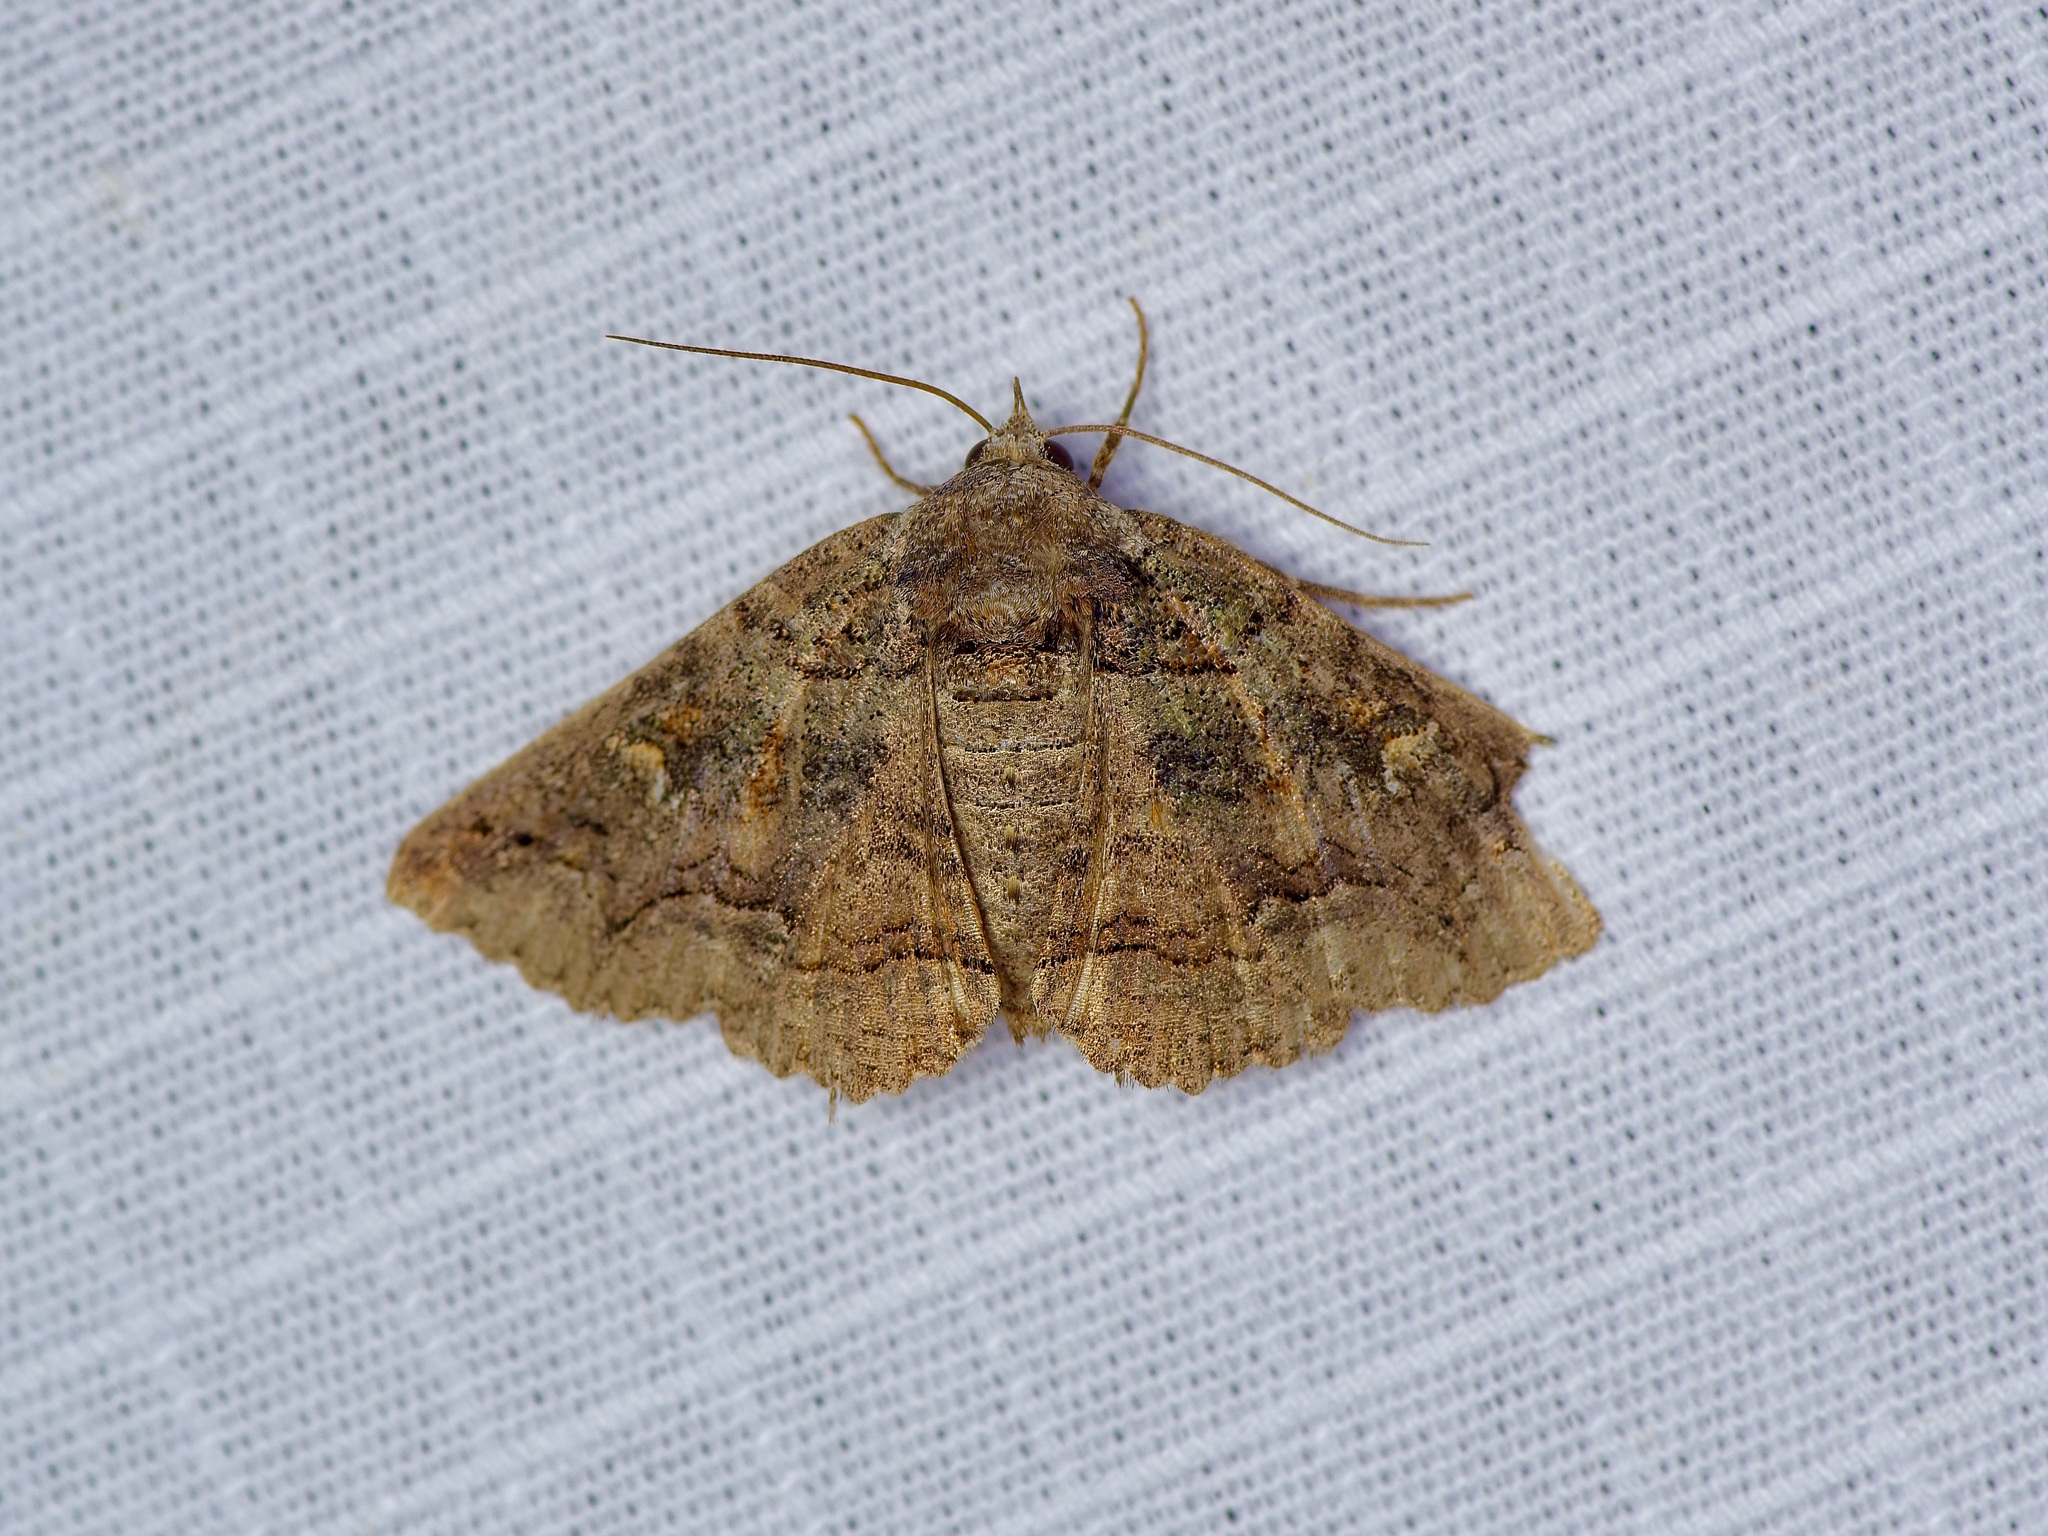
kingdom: Animalia
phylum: Arthropoda
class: Insecta
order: Lepidoptera
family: Erebidae
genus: Zale
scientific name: Zale edusina
